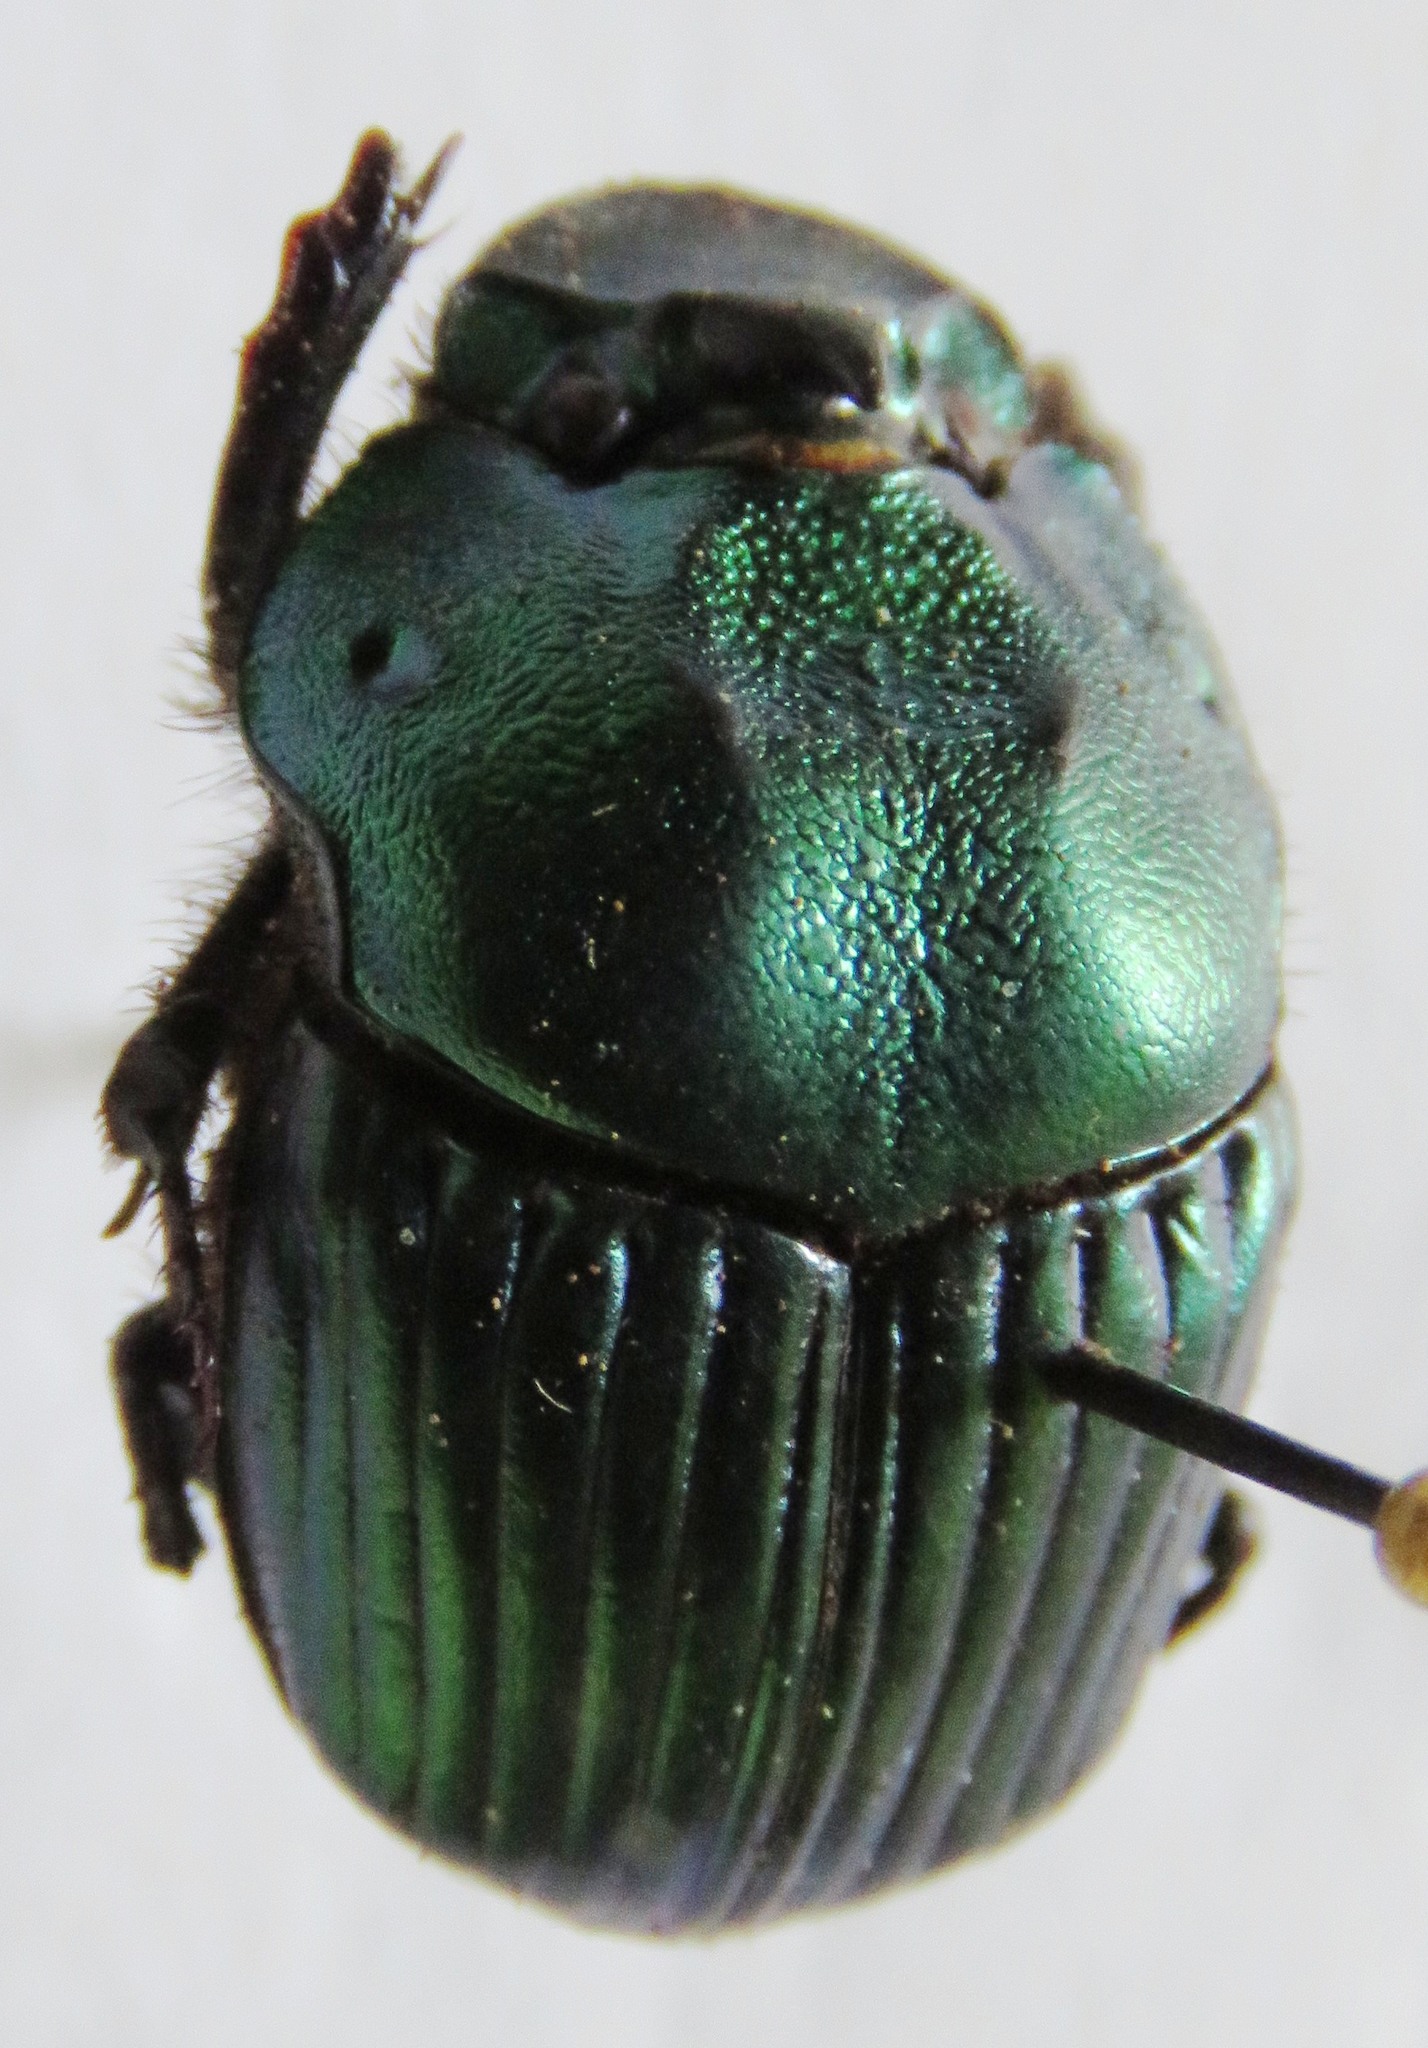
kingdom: Animalia
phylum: Arthropoda
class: Insecta
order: Coleoptera
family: Scarabaeidae
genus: Phanaeus
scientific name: Phanaeus wagneri
